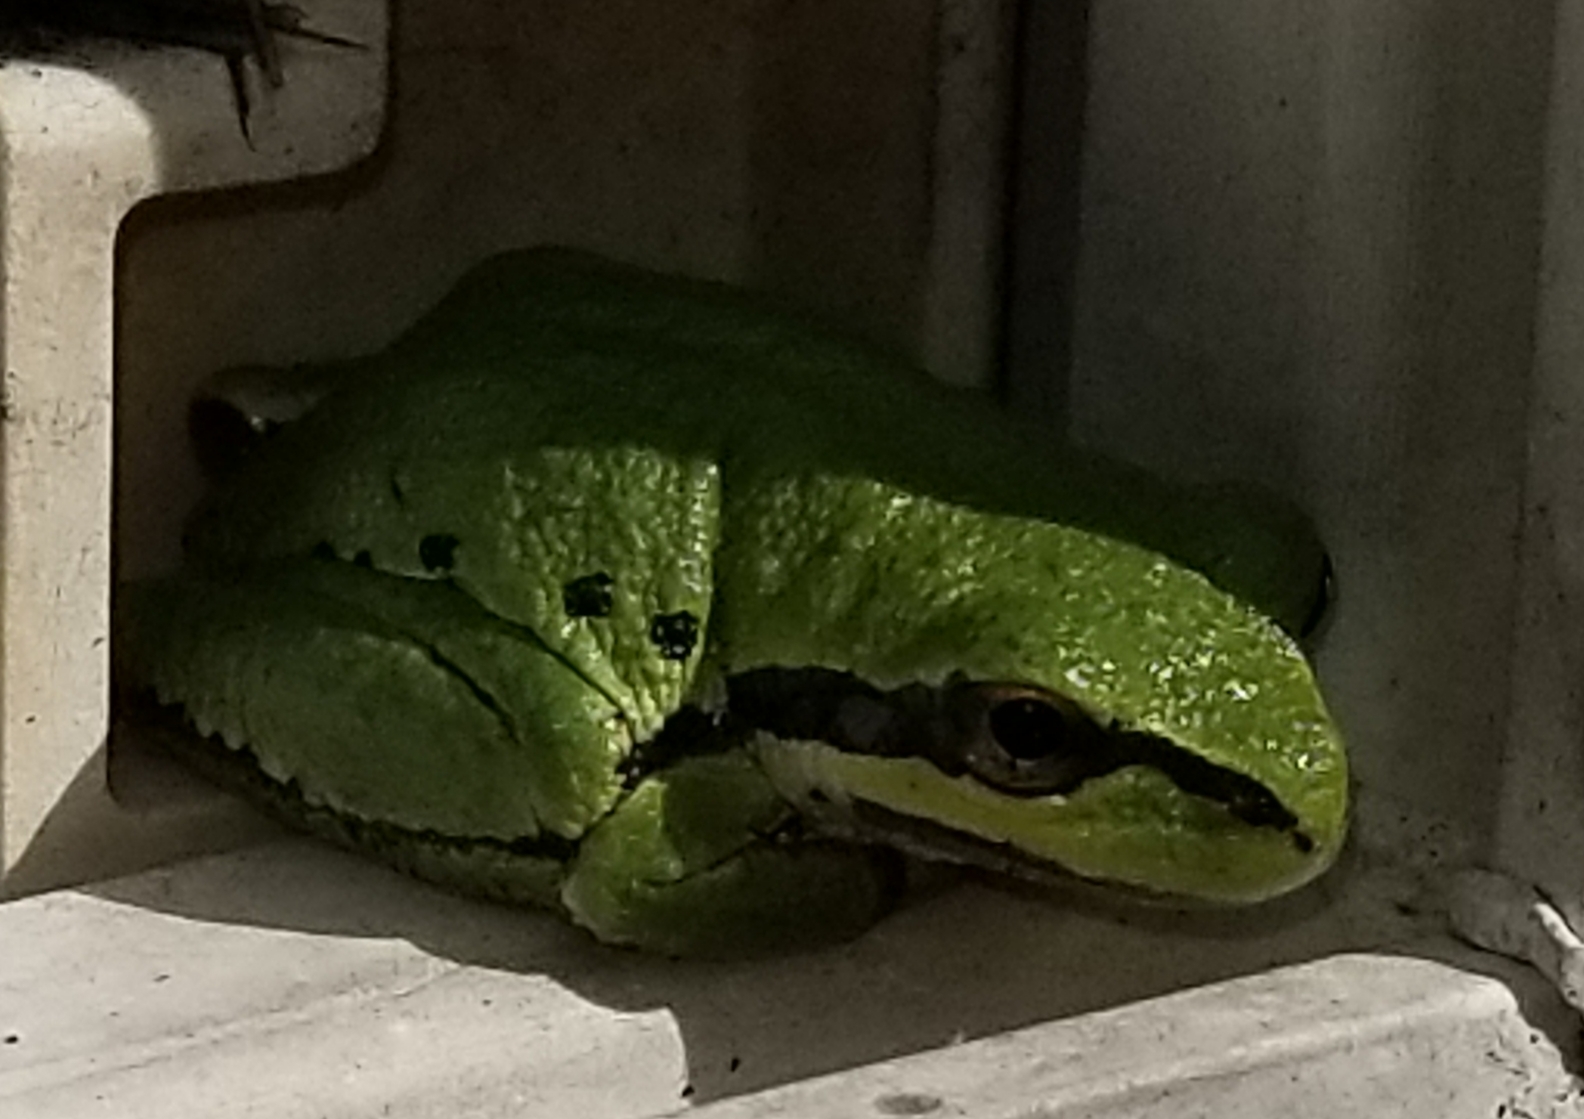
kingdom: Animalia
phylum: Chordata
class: Amphibia
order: Anura
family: Hylidae
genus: Pseudacris
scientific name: Pseudacris regilla
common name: Pacific chorus frog
